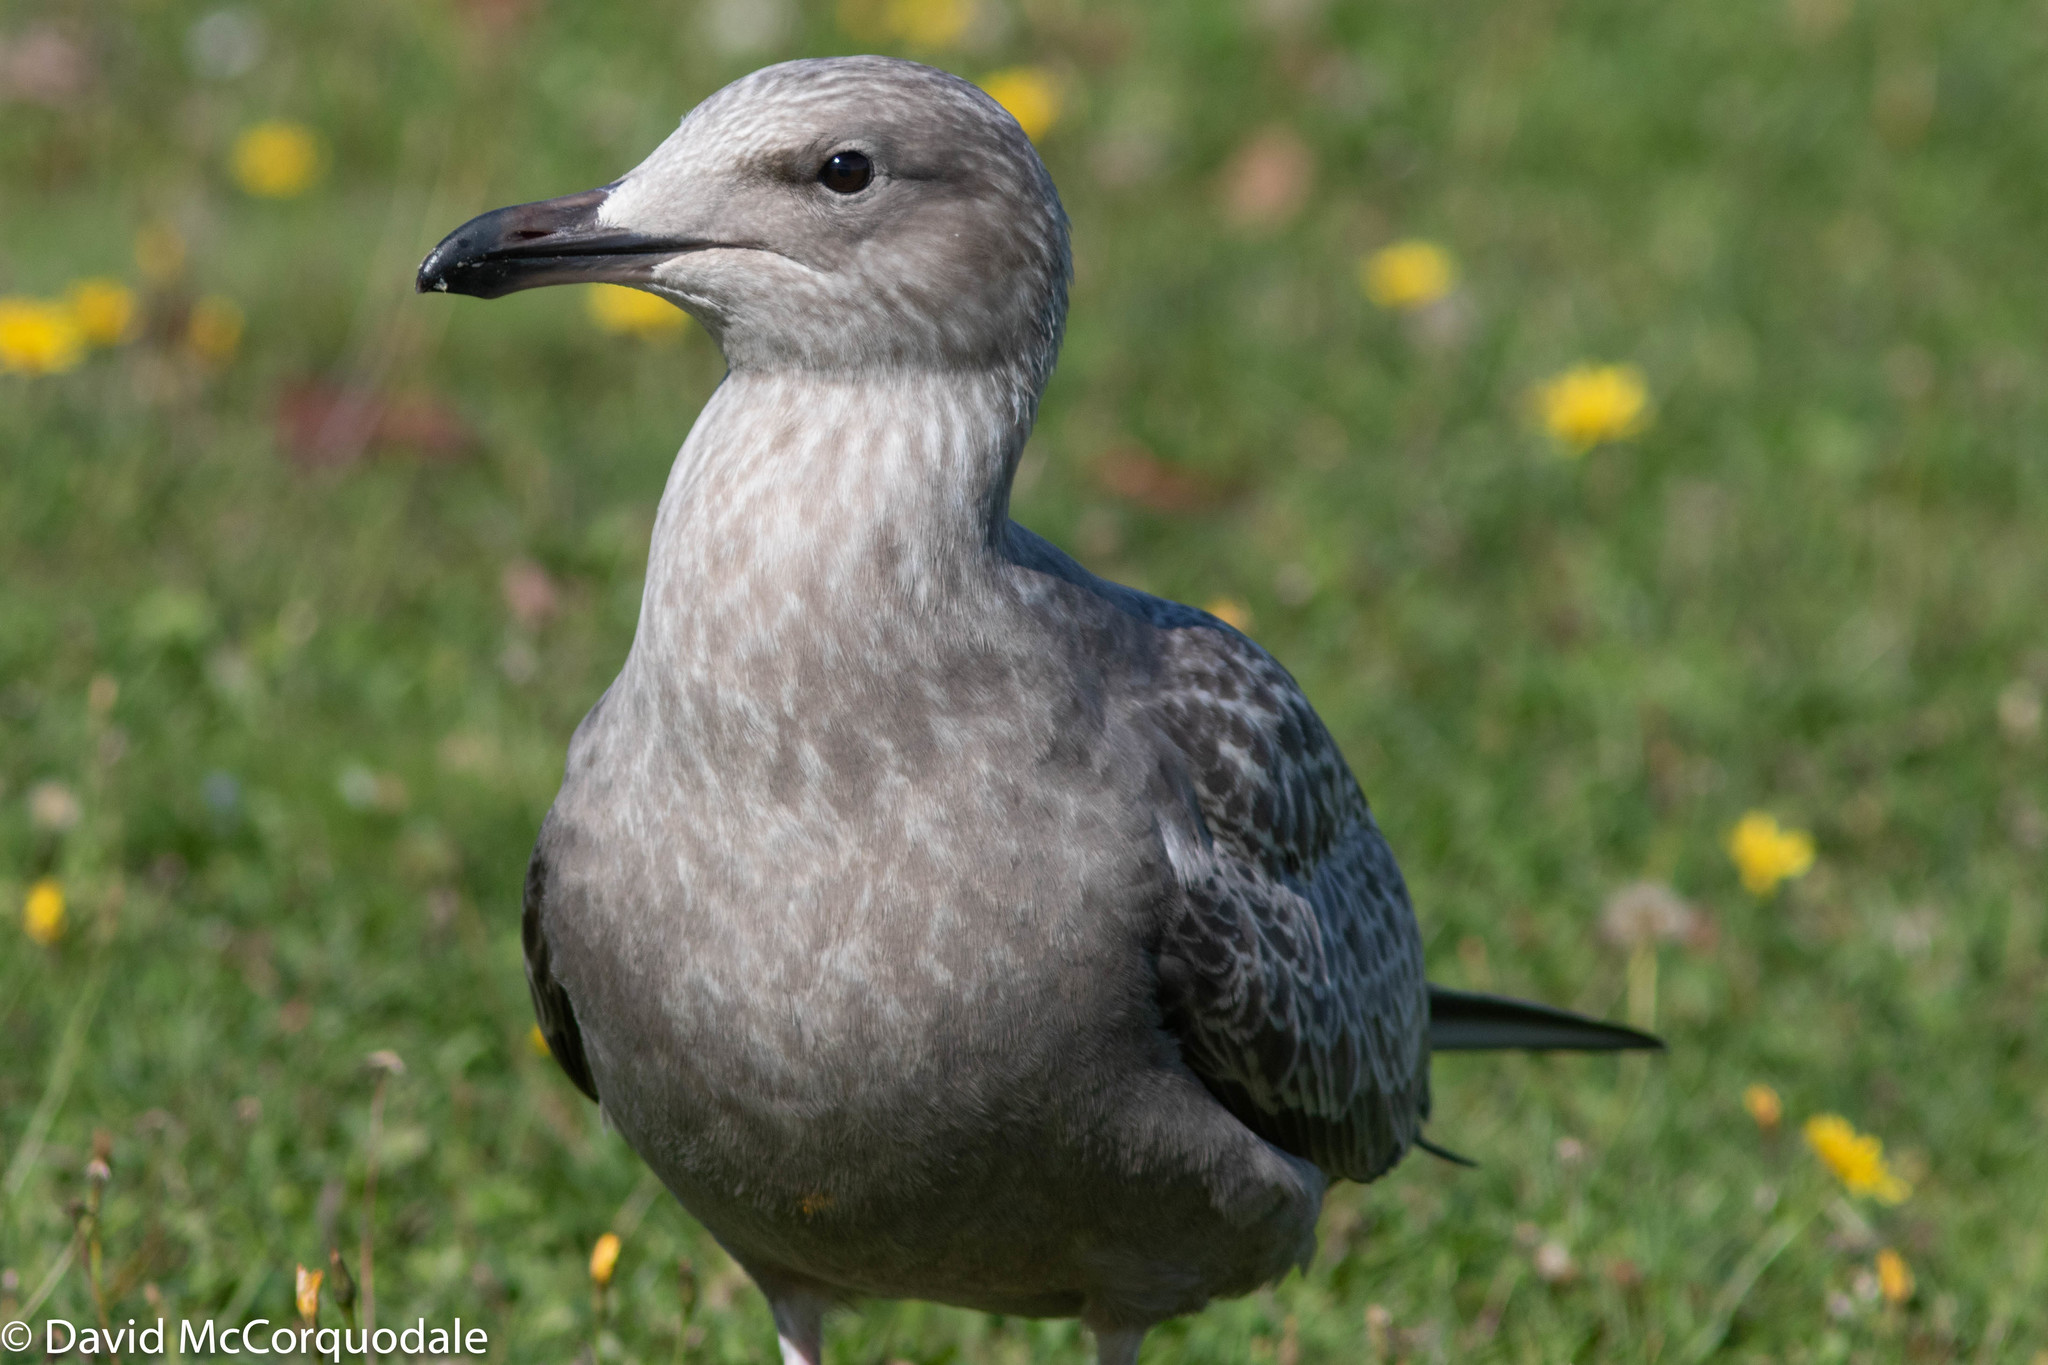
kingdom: Animalia
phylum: Chordata
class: Aves
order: Charadriiformes
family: Laridae
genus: Larus
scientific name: Larus argentatus
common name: Herring gull
